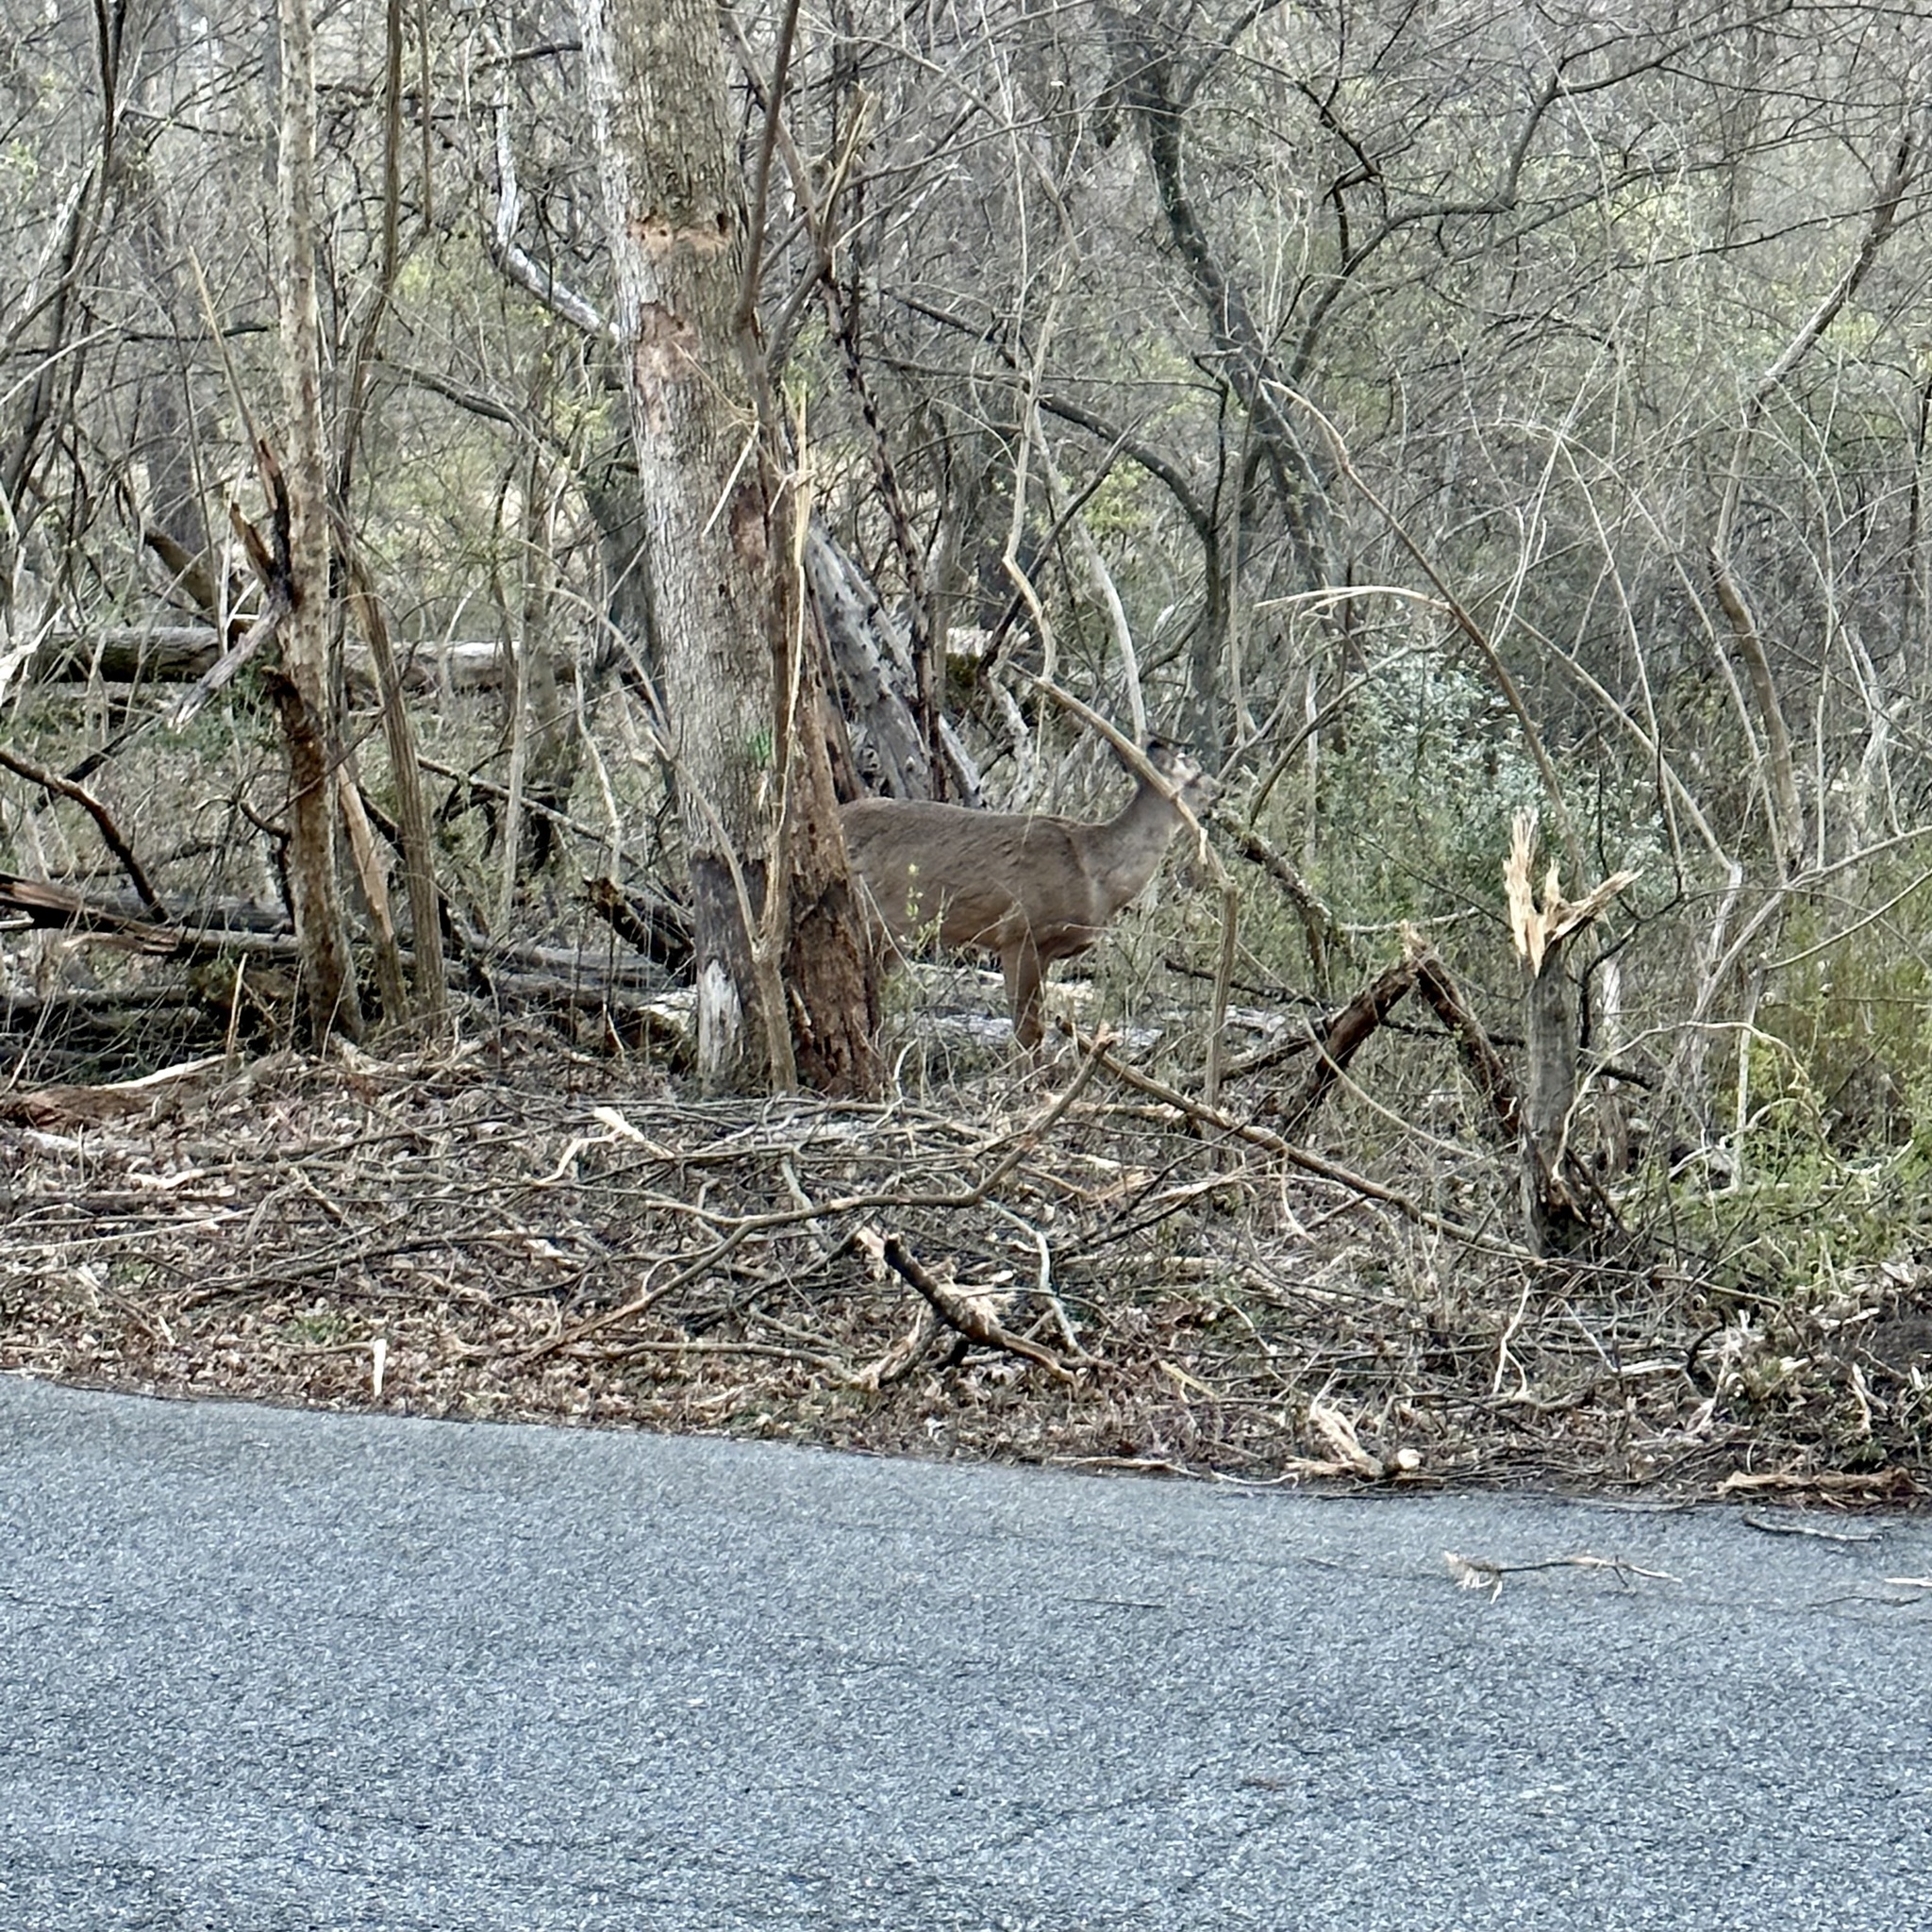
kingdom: Animalia
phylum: Chordata
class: Mammalia
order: Artiodactyla
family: Cervidae
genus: Odocoileus
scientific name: Odocoileus virginianus
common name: White-tailed deer
